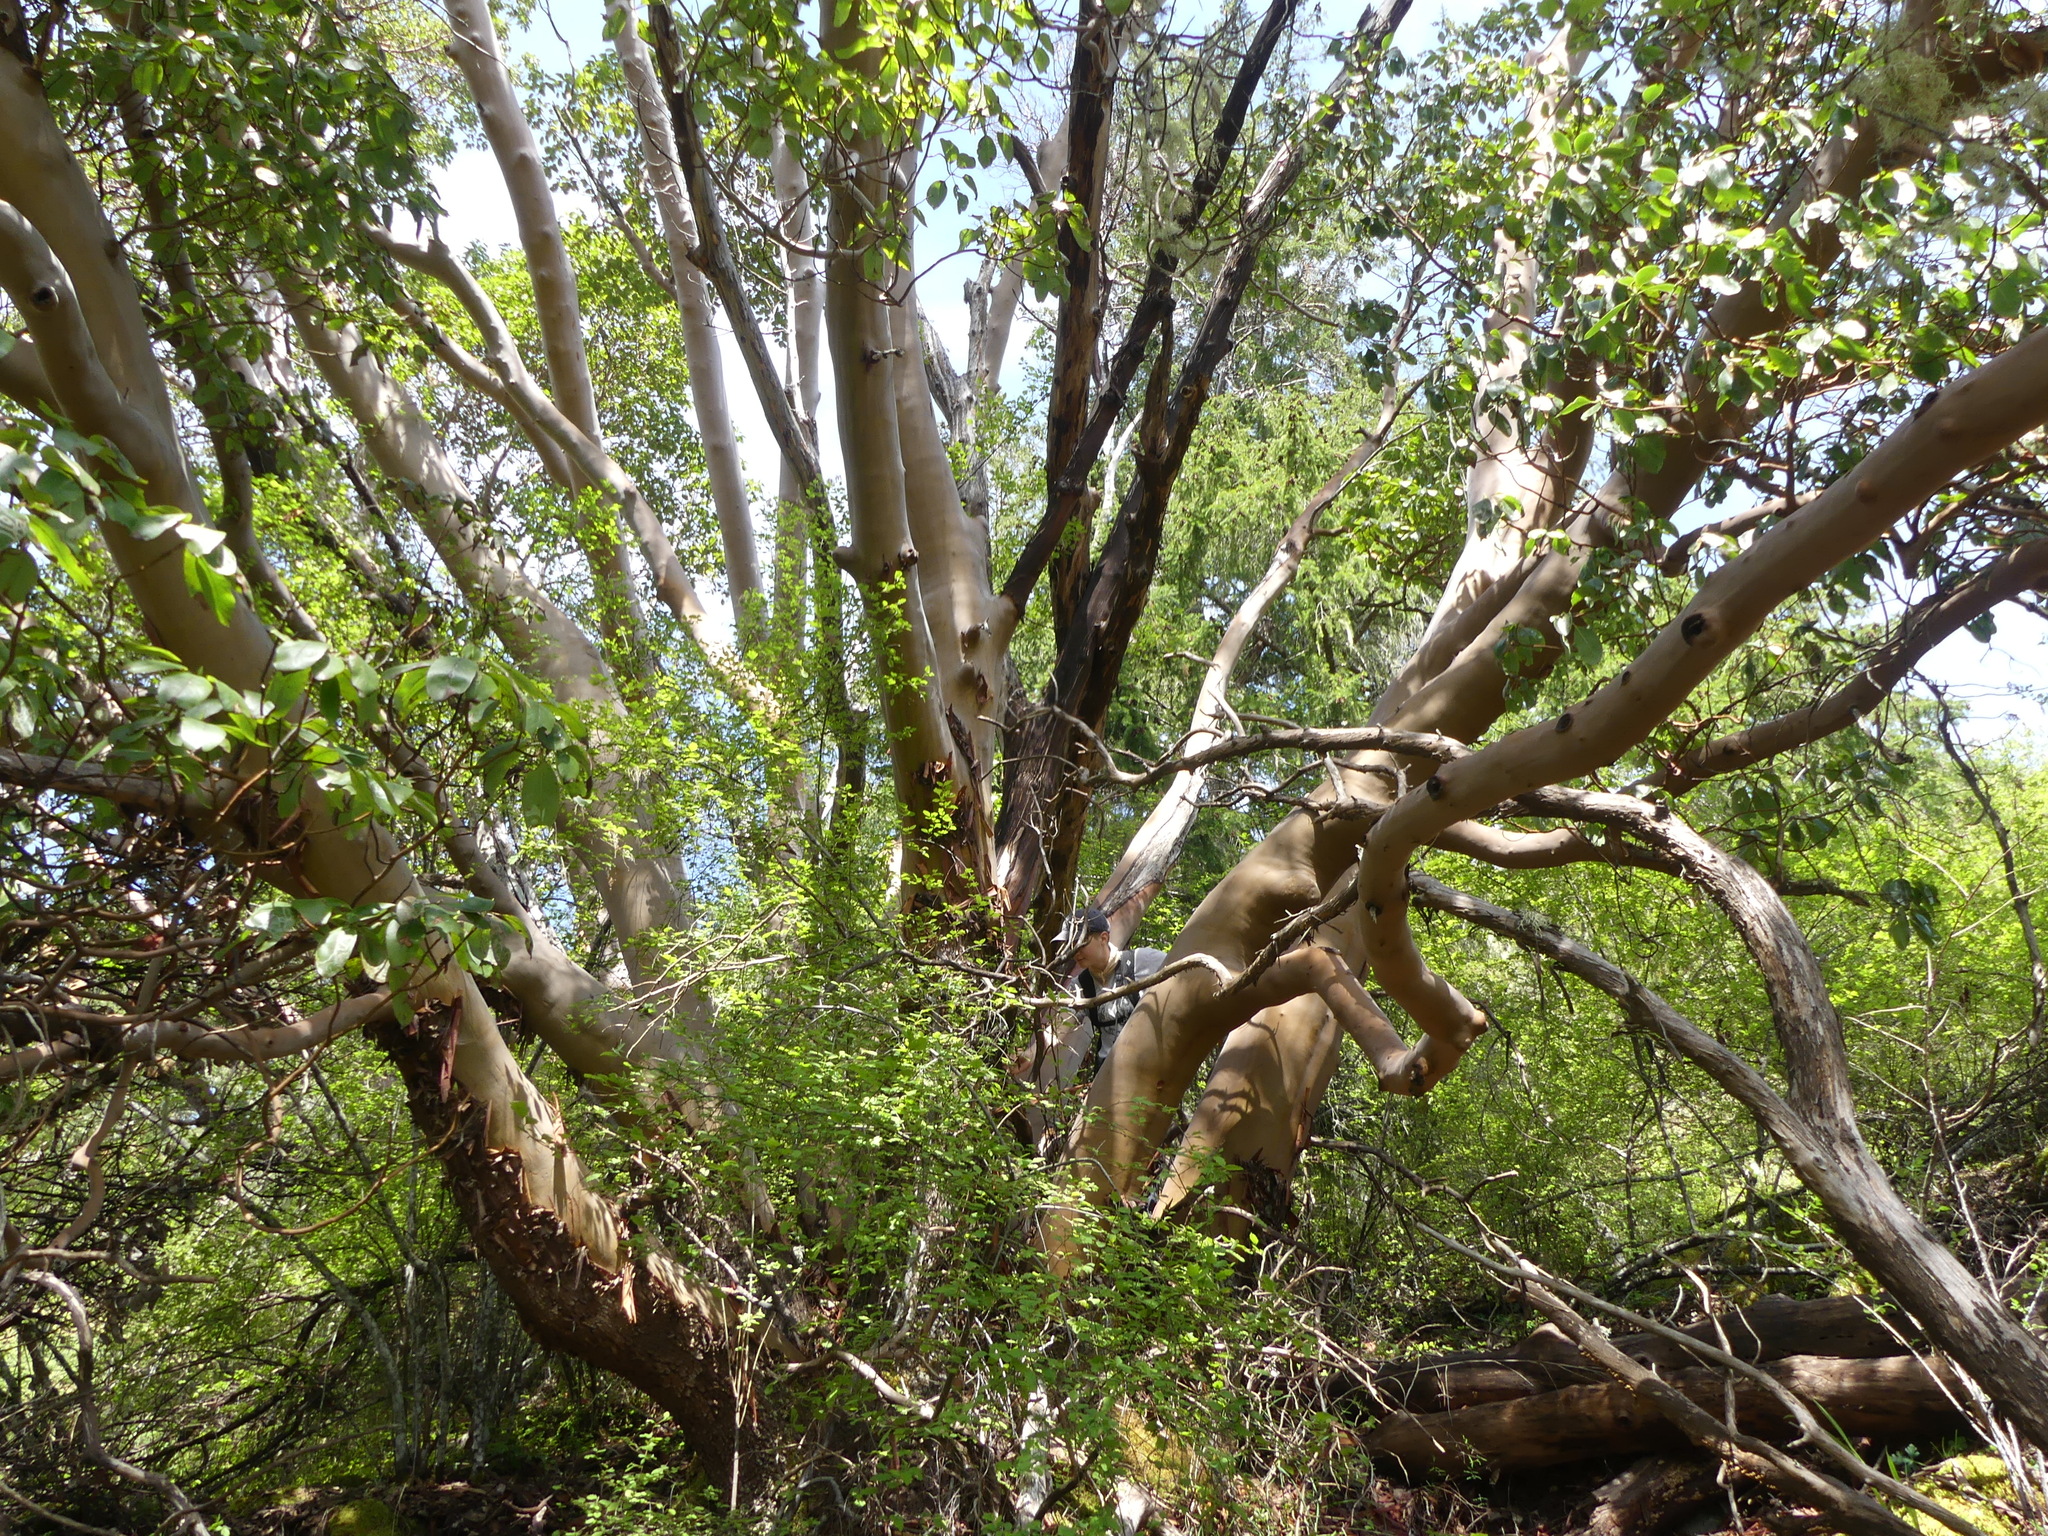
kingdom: Plantae
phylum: Tracheophyta
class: Magnoliopsida
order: Ericales
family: Ericaceae
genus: Arbutus
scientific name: Arbutus menziesii
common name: Pacific madrone
